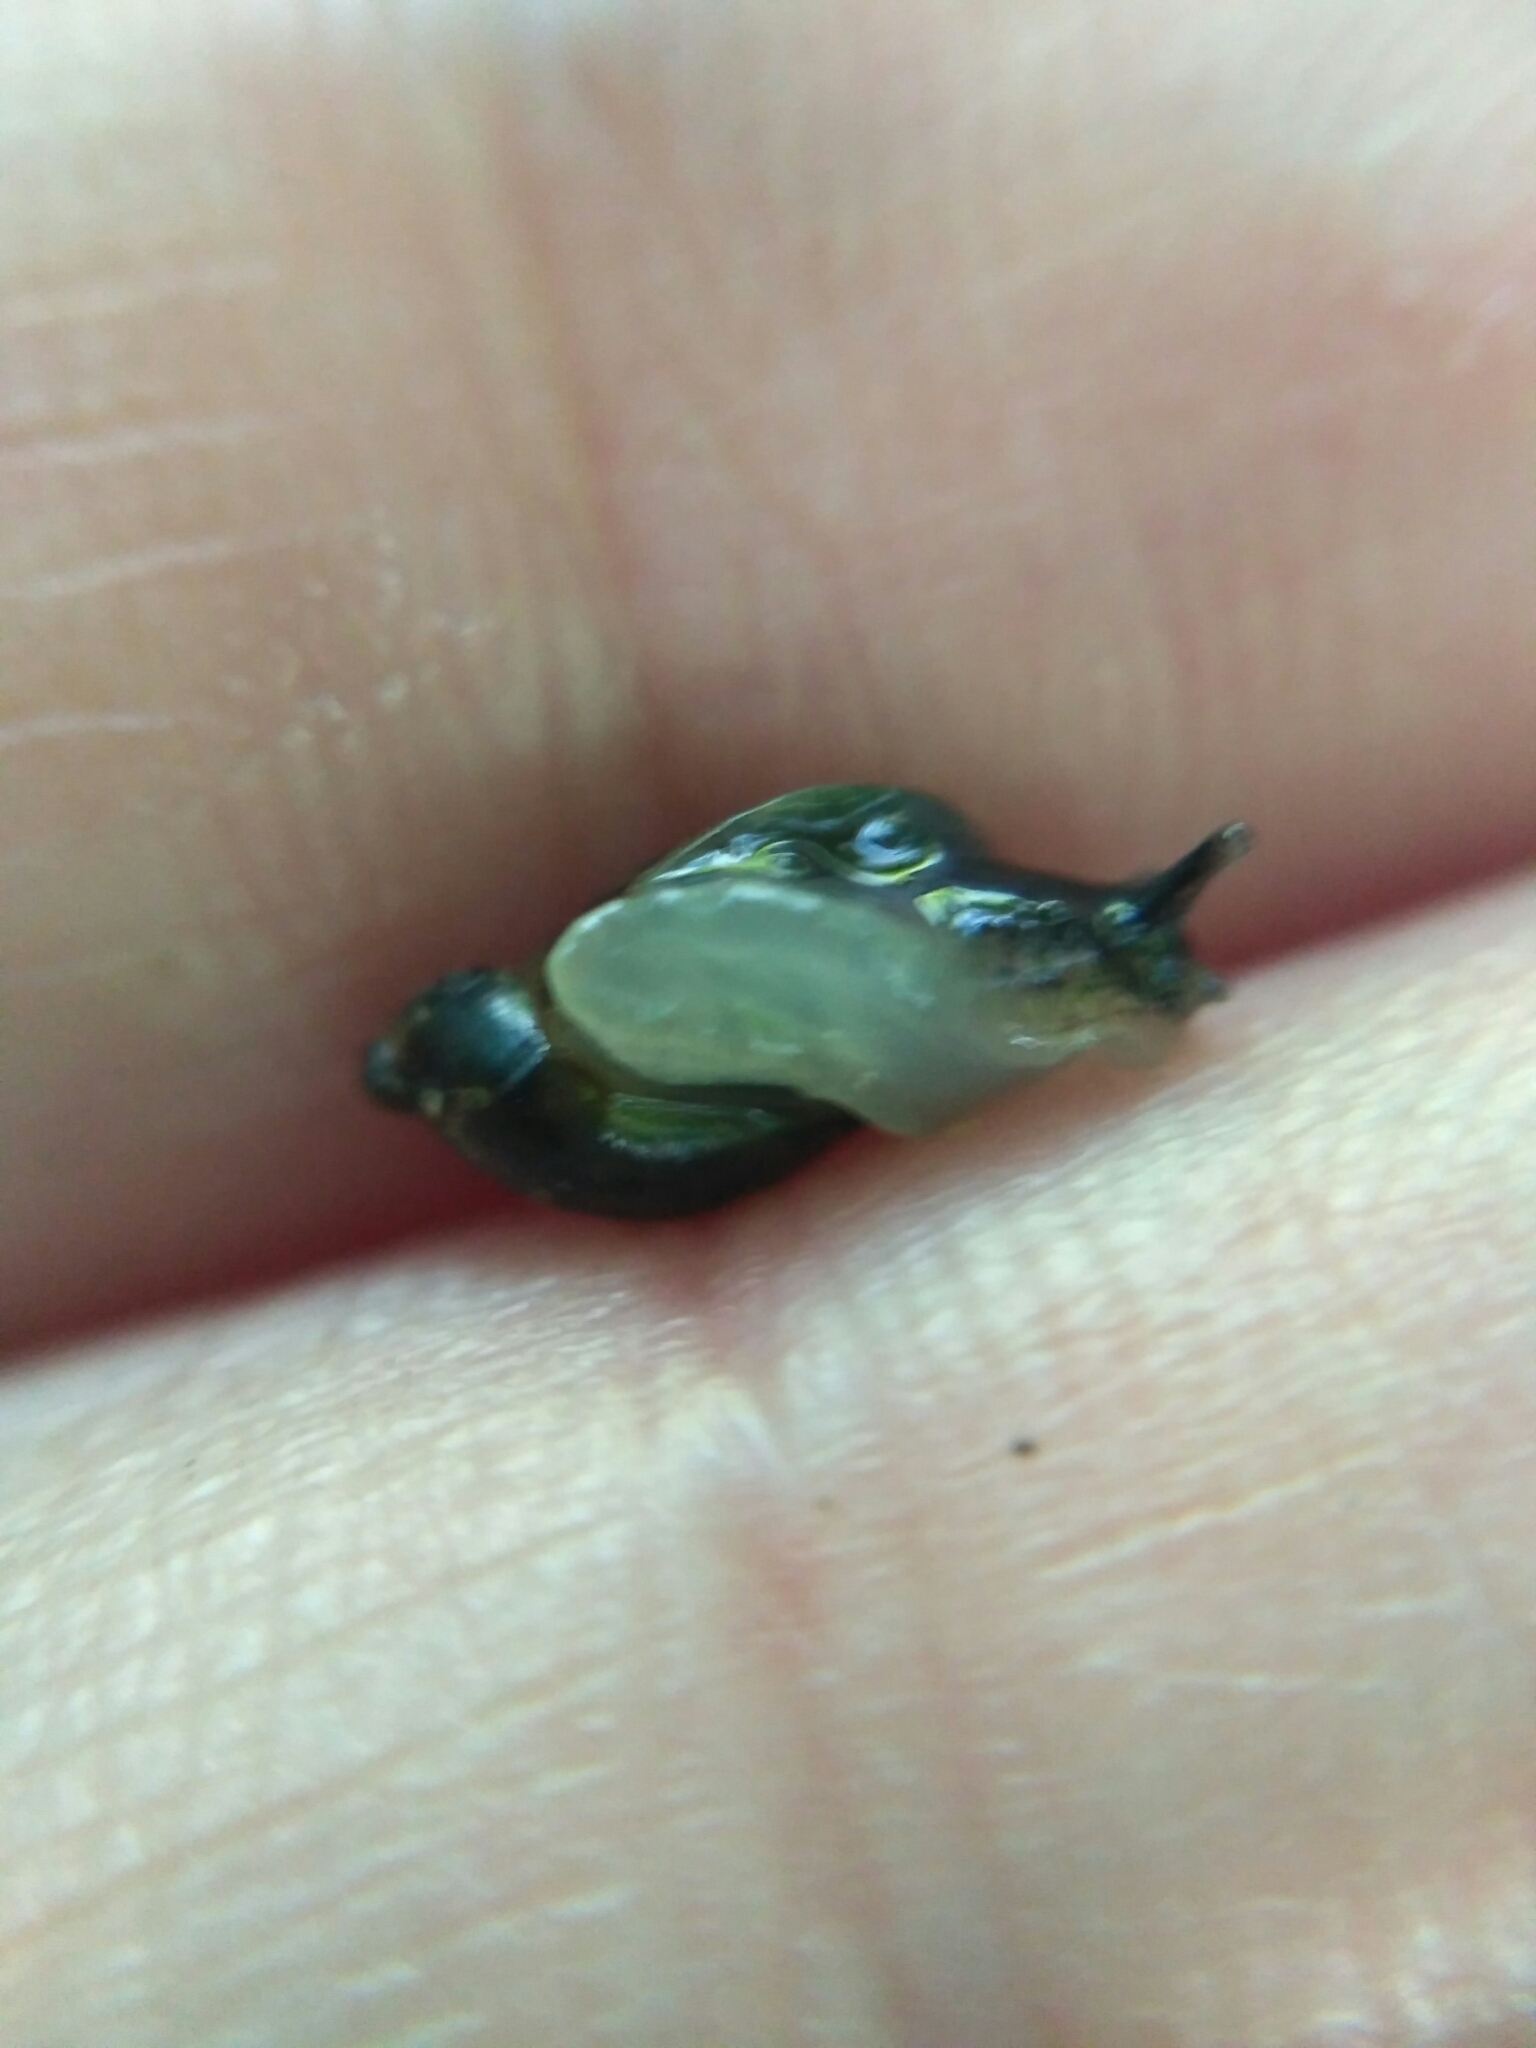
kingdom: Animalia
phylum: Mollusca
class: Gastropoda
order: Stylommatophora
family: Succineidae
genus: Oxyloma
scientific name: Oxyloma sarsii
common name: Slender amber snail
